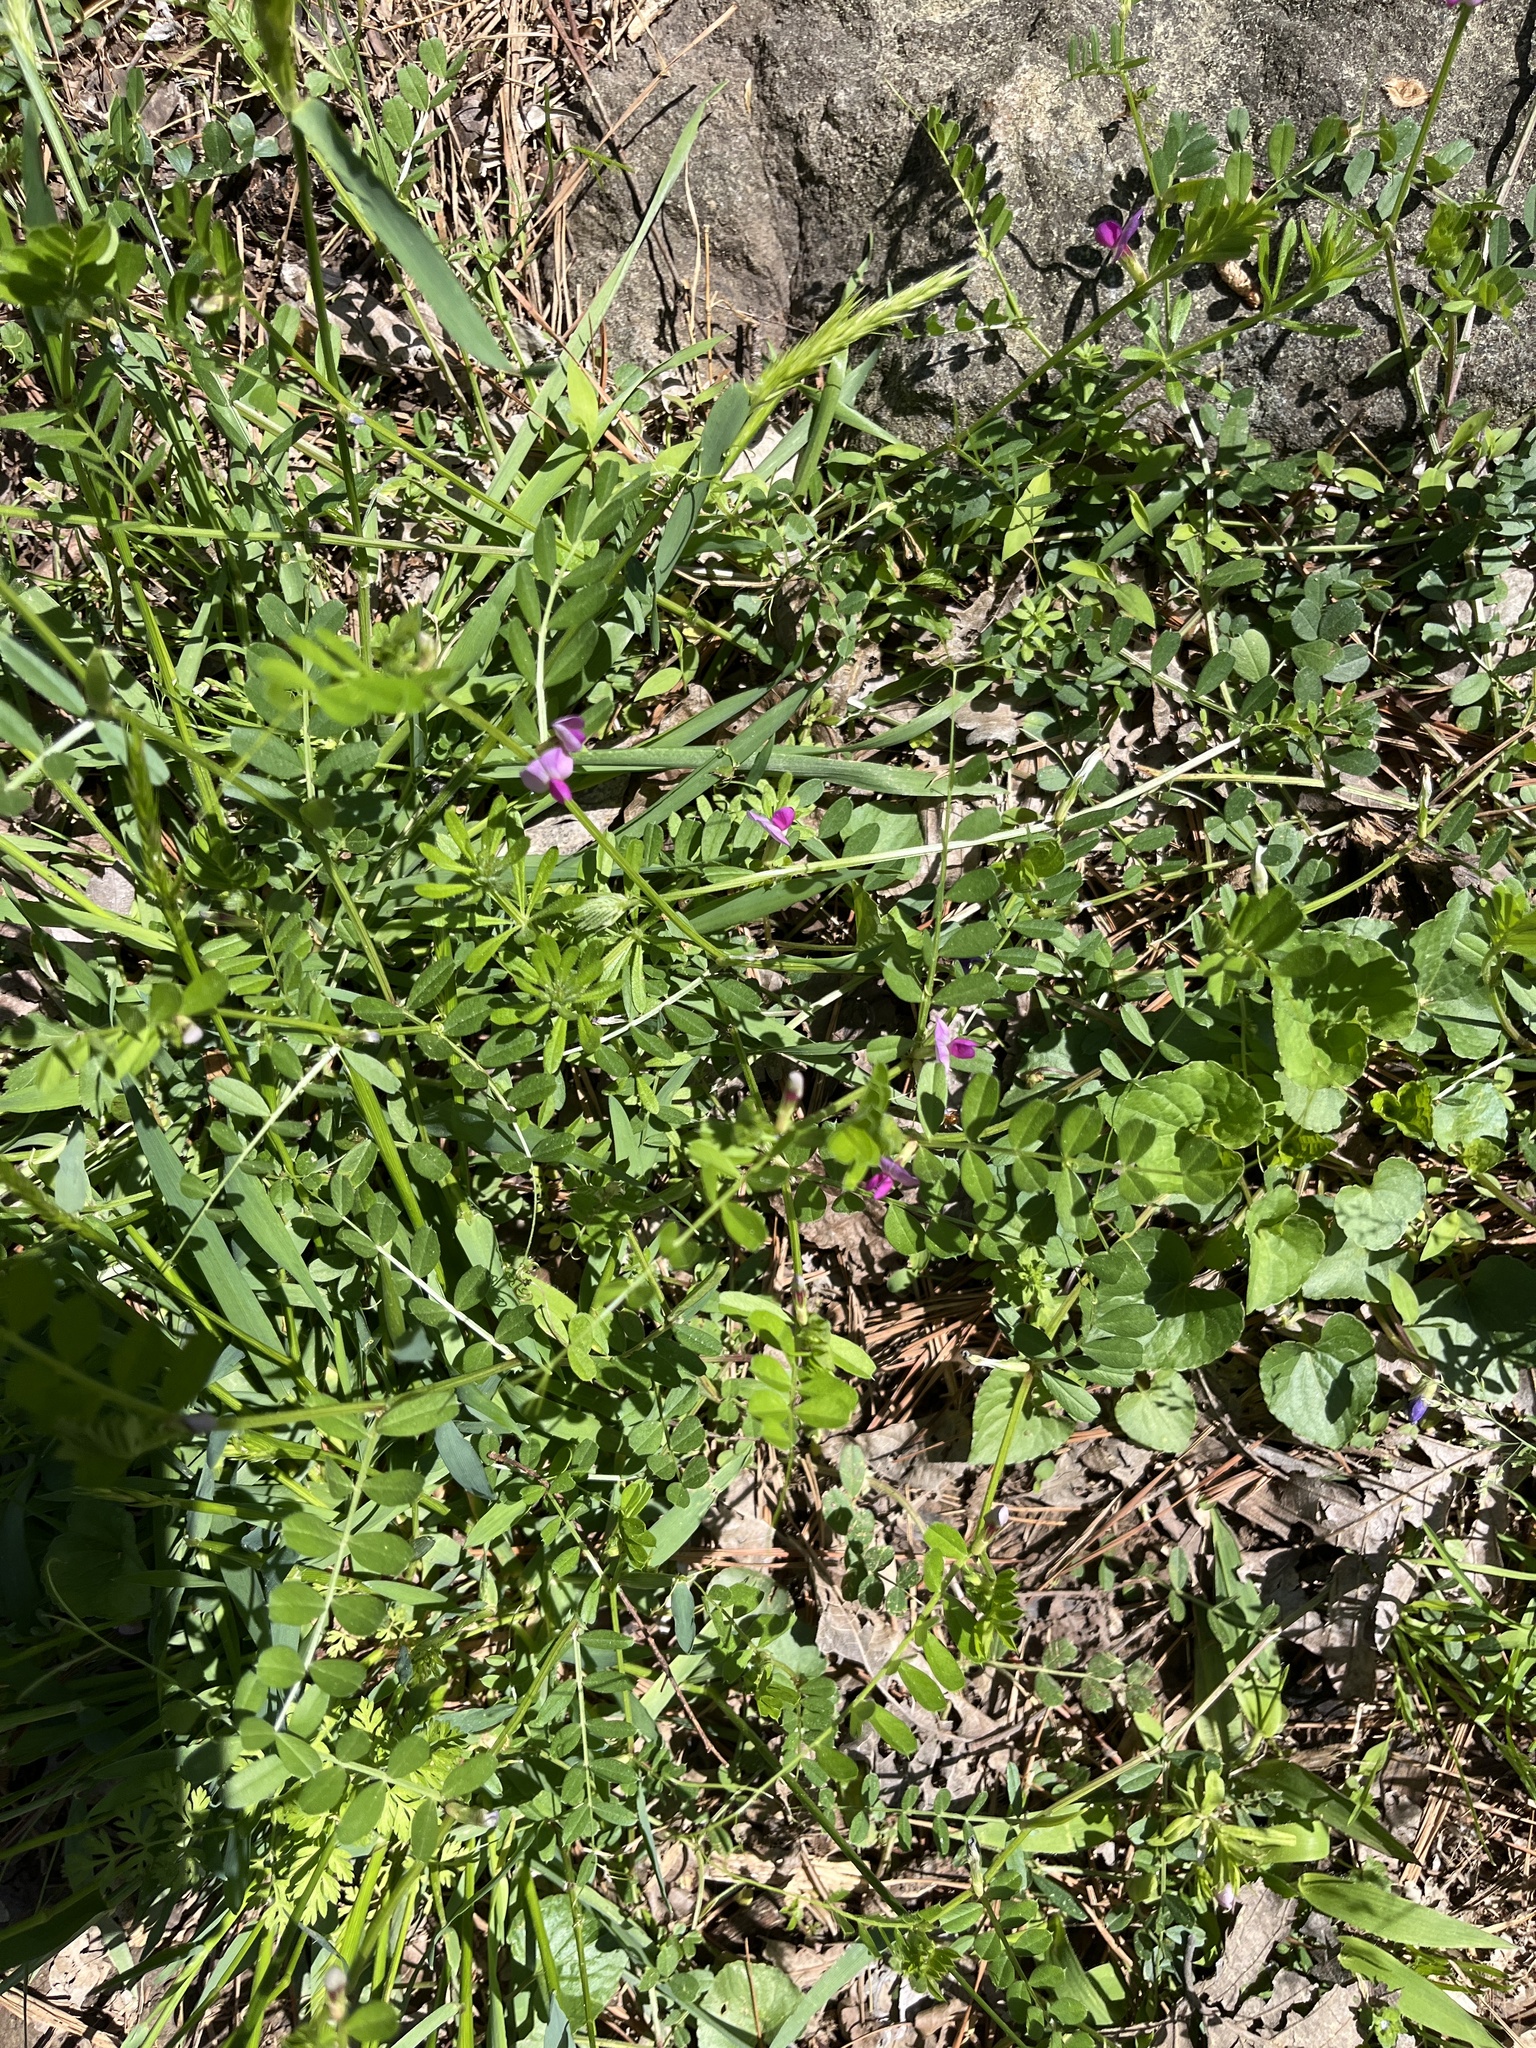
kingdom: Plantae
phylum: Tracheophyta
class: Magnoliopsida
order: Fabales
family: Fabaceae
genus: Vicia
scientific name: Vicia sativa
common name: Garden vetch
